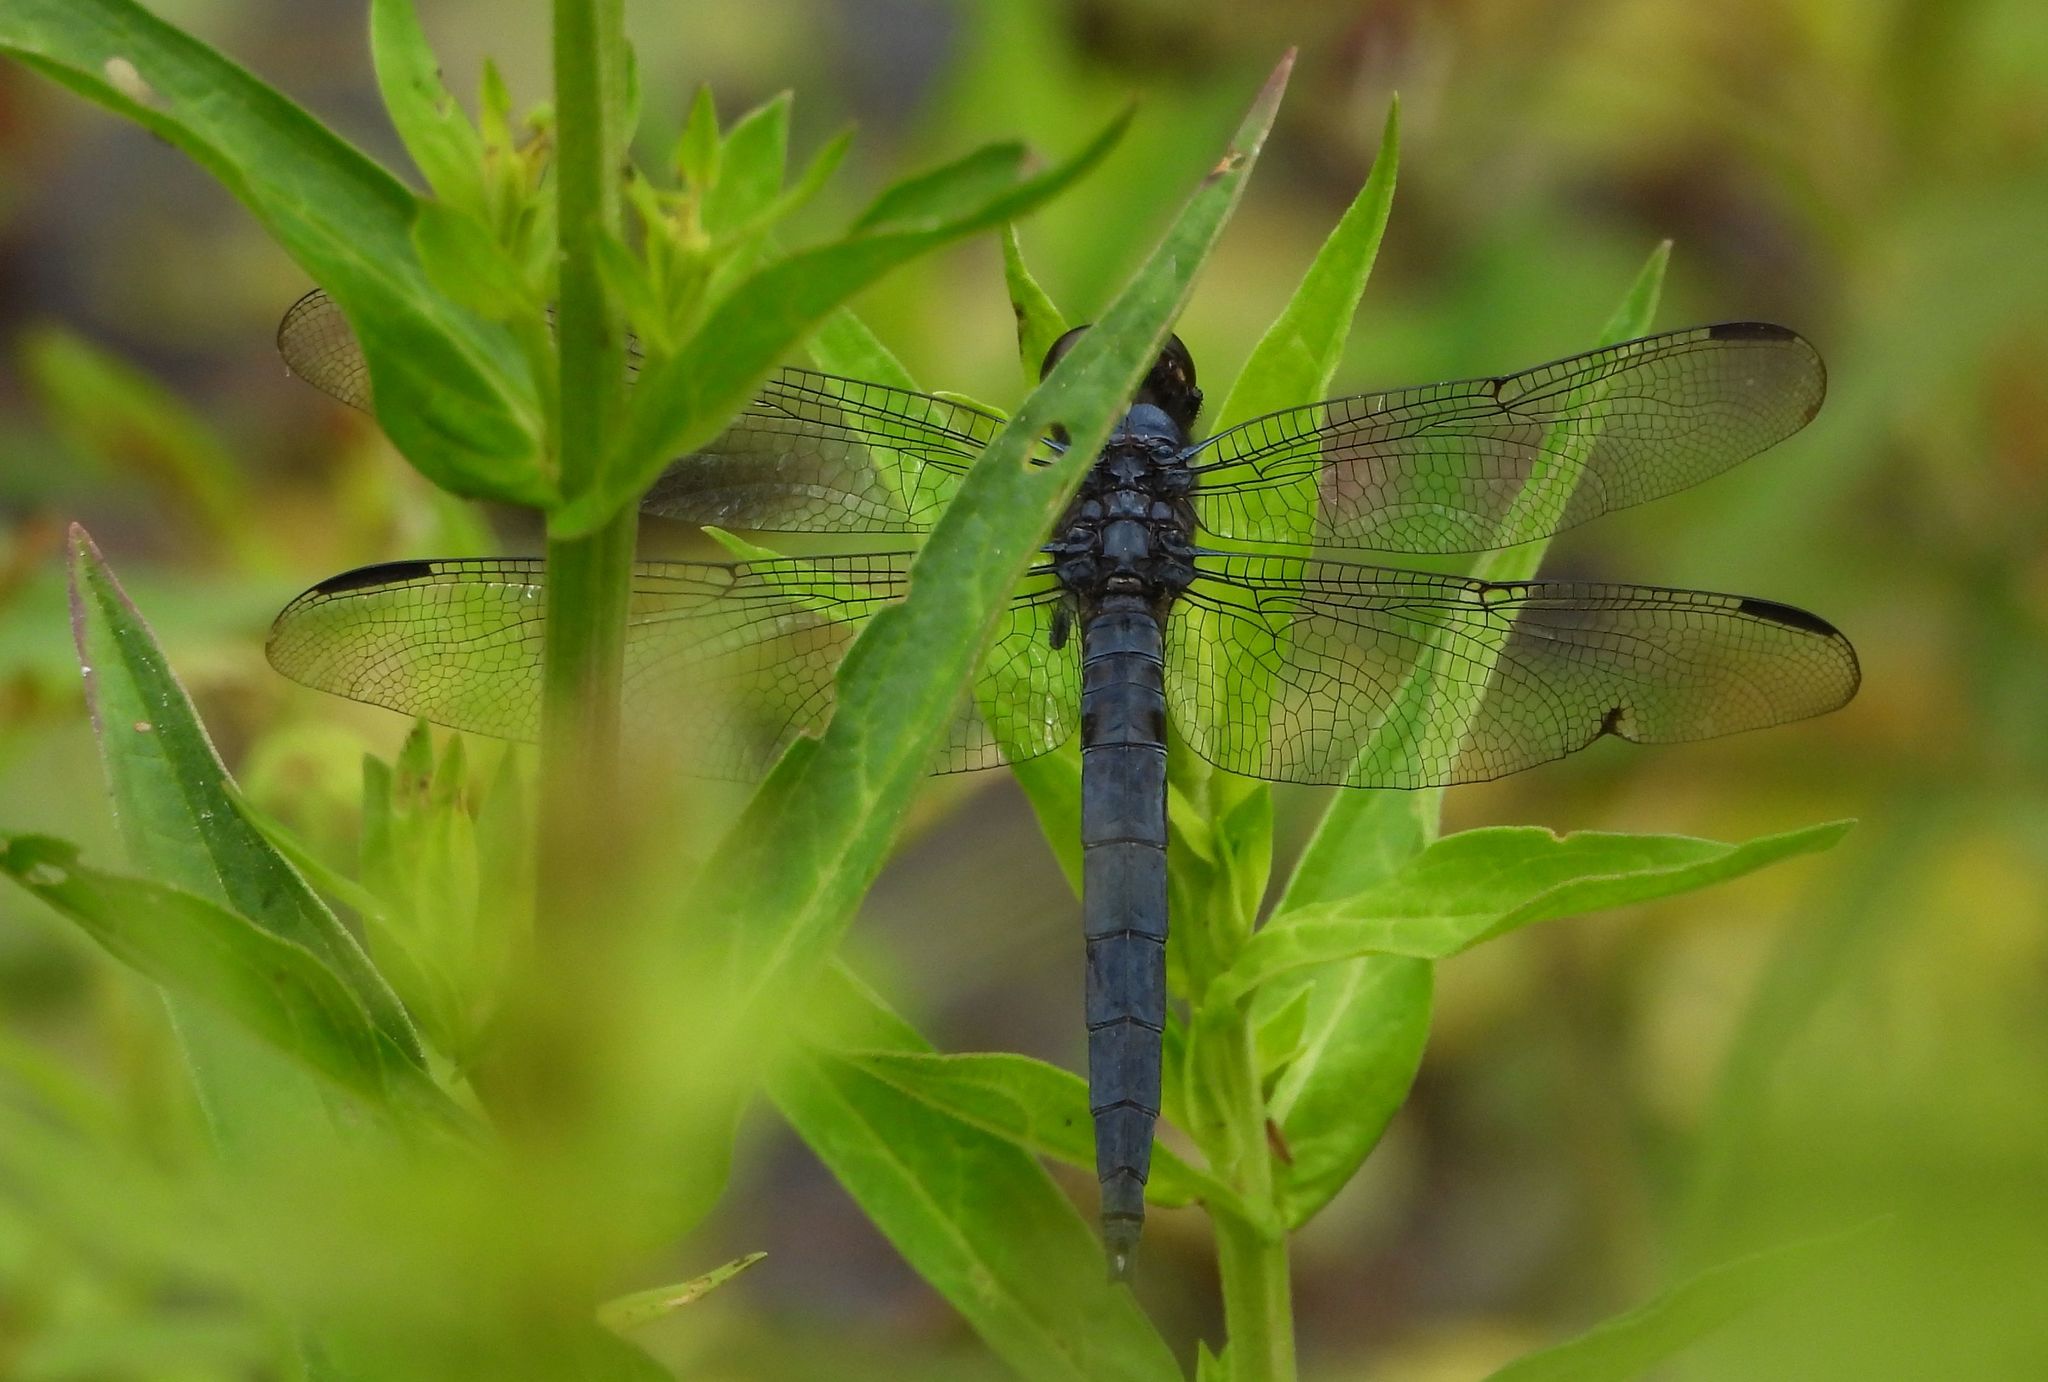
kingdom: Animalia
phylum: Arthropoda
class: Insecta
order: Odonata
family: Libellulidae
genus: Libellula
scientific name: Libellula incesta
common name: Slaty skimmer
